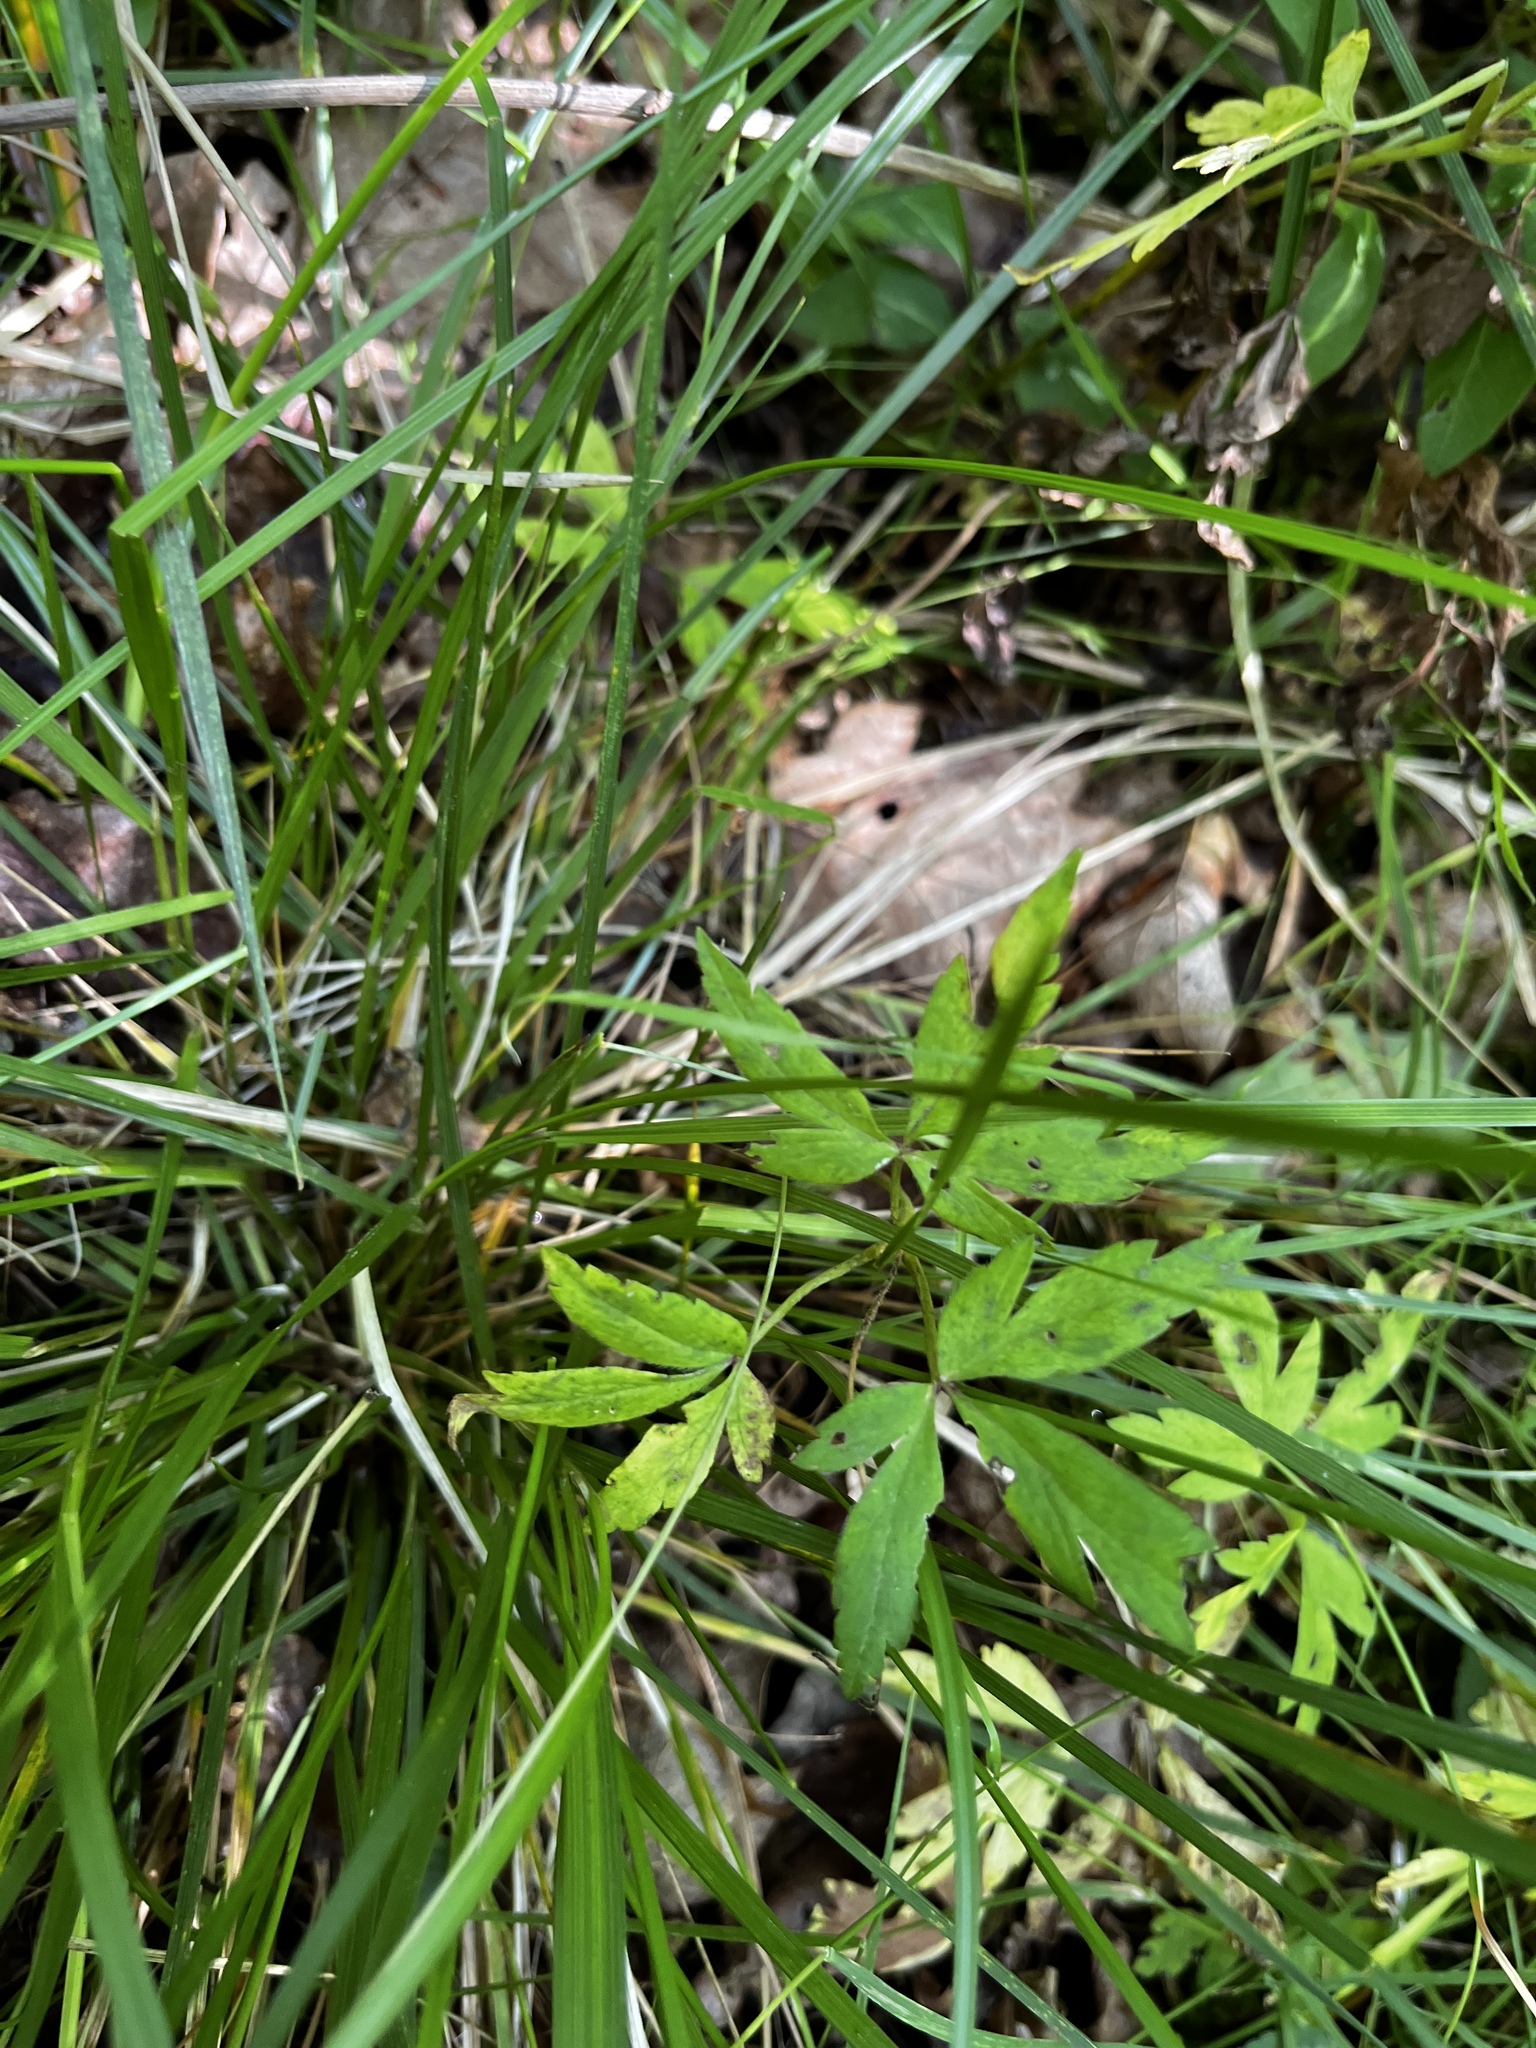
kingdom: Plantae
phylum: Tracheophyta
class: Magnoliopsida
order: Ranunculales
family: Ranunculaceae
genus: Anemone
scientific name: Anemone nemorosa
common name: Wood anemone
